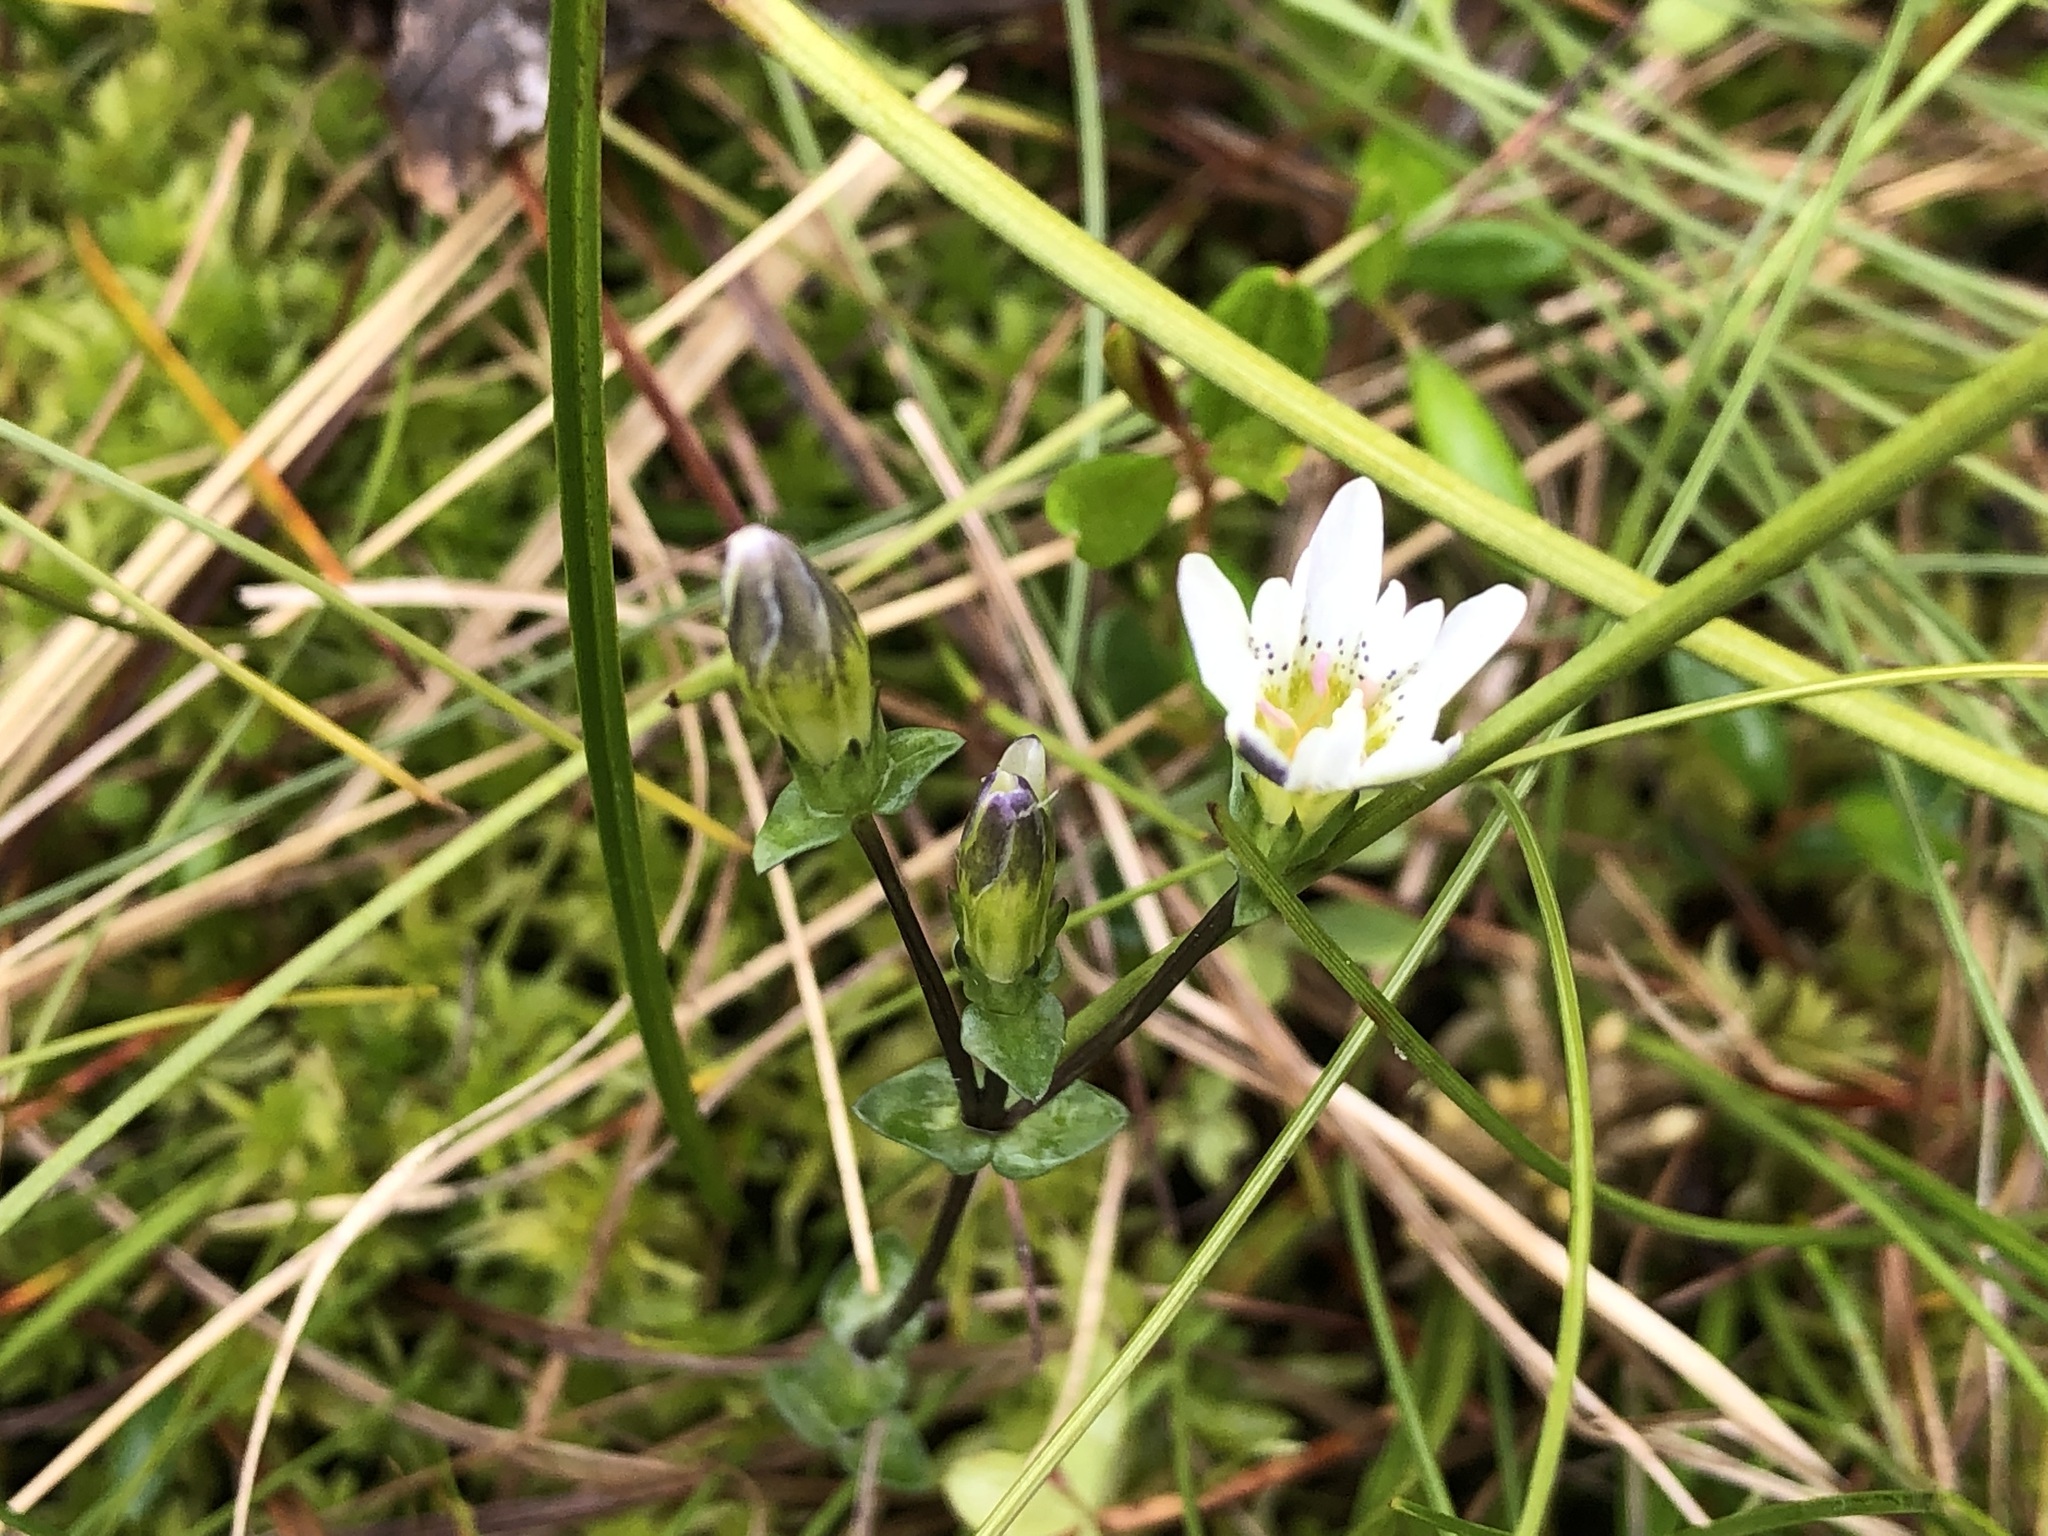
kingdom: Plantae
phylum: Tracheophyta
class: Magnoliopsida
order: Gentianales
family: Gentianaceae
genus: Gentiana
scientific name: Gentiana douglasiana
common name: Swamp gentian
